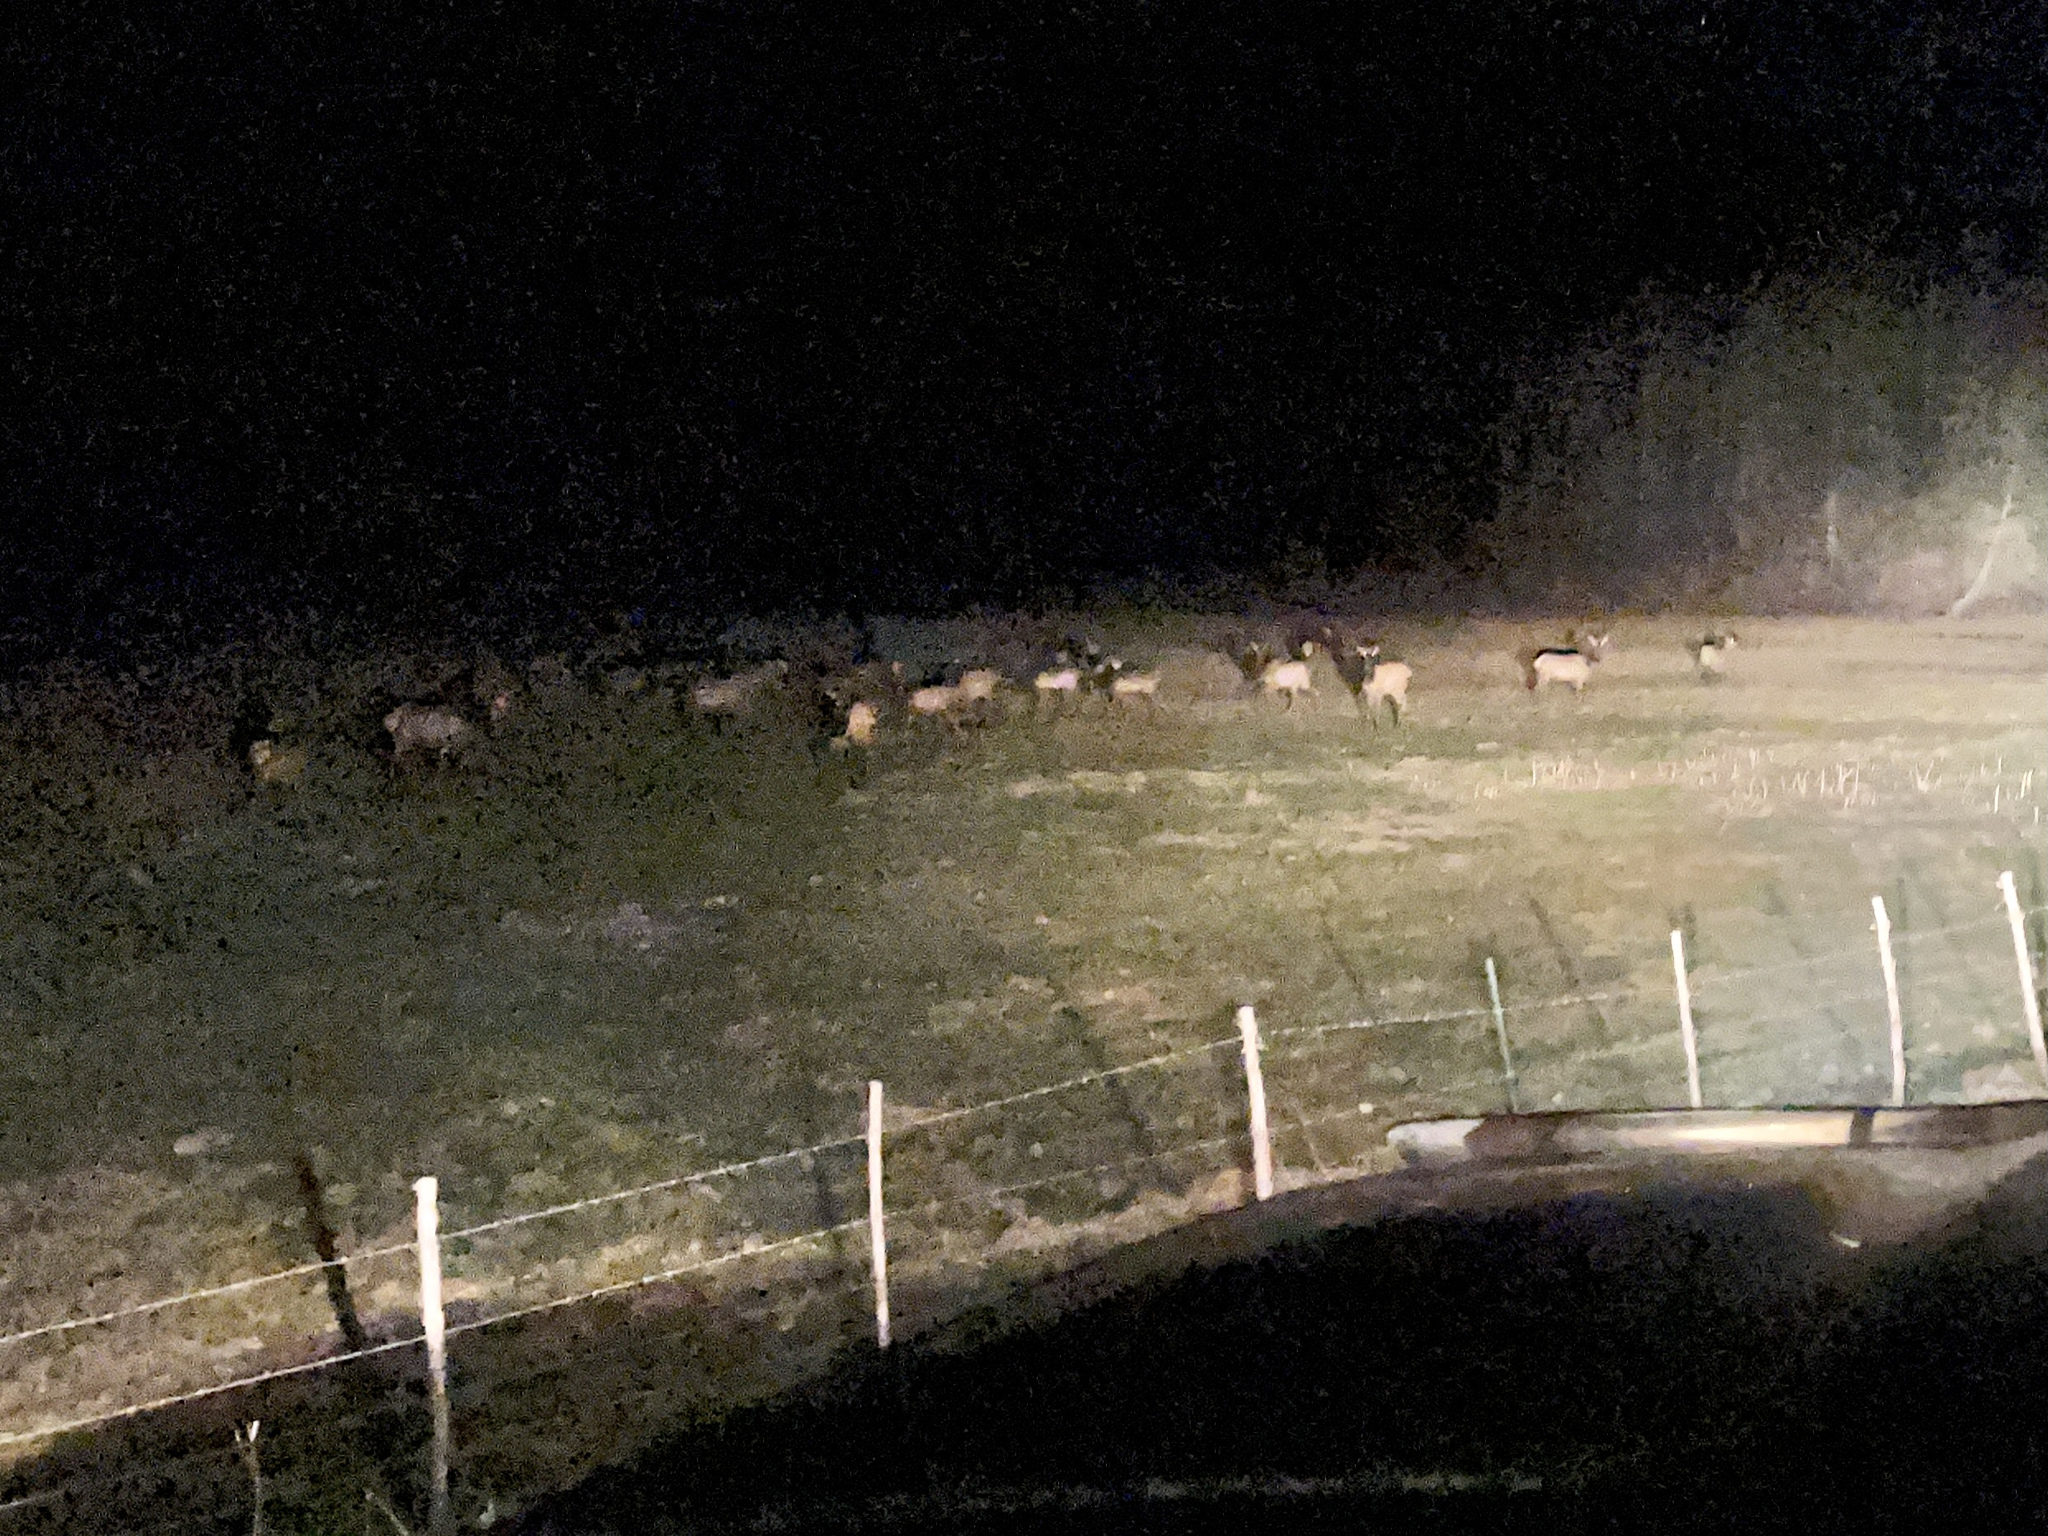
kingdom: Animalia
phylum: Chordata
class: Mammalia
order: Artiodactyla
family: Cervidae
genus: Cervus
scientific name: Cervus elaphus
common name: Red deer
